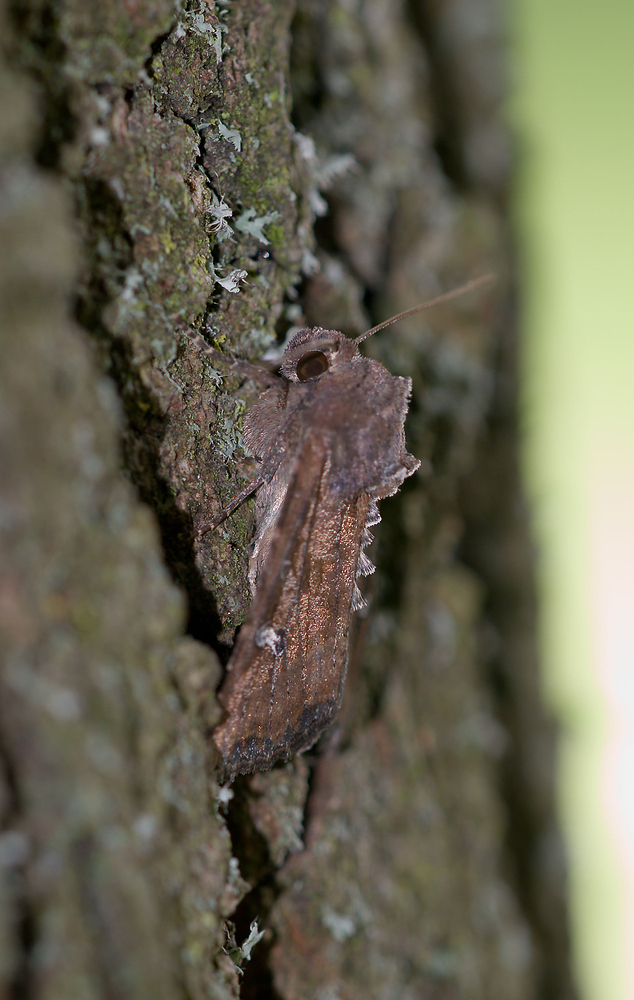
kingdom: Animalia
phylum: Arthropoda
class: Insecta
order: Lepidoptera
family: Noctuidae
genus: Helotropha
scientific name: Helotropha leucostigma
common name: The crescent
